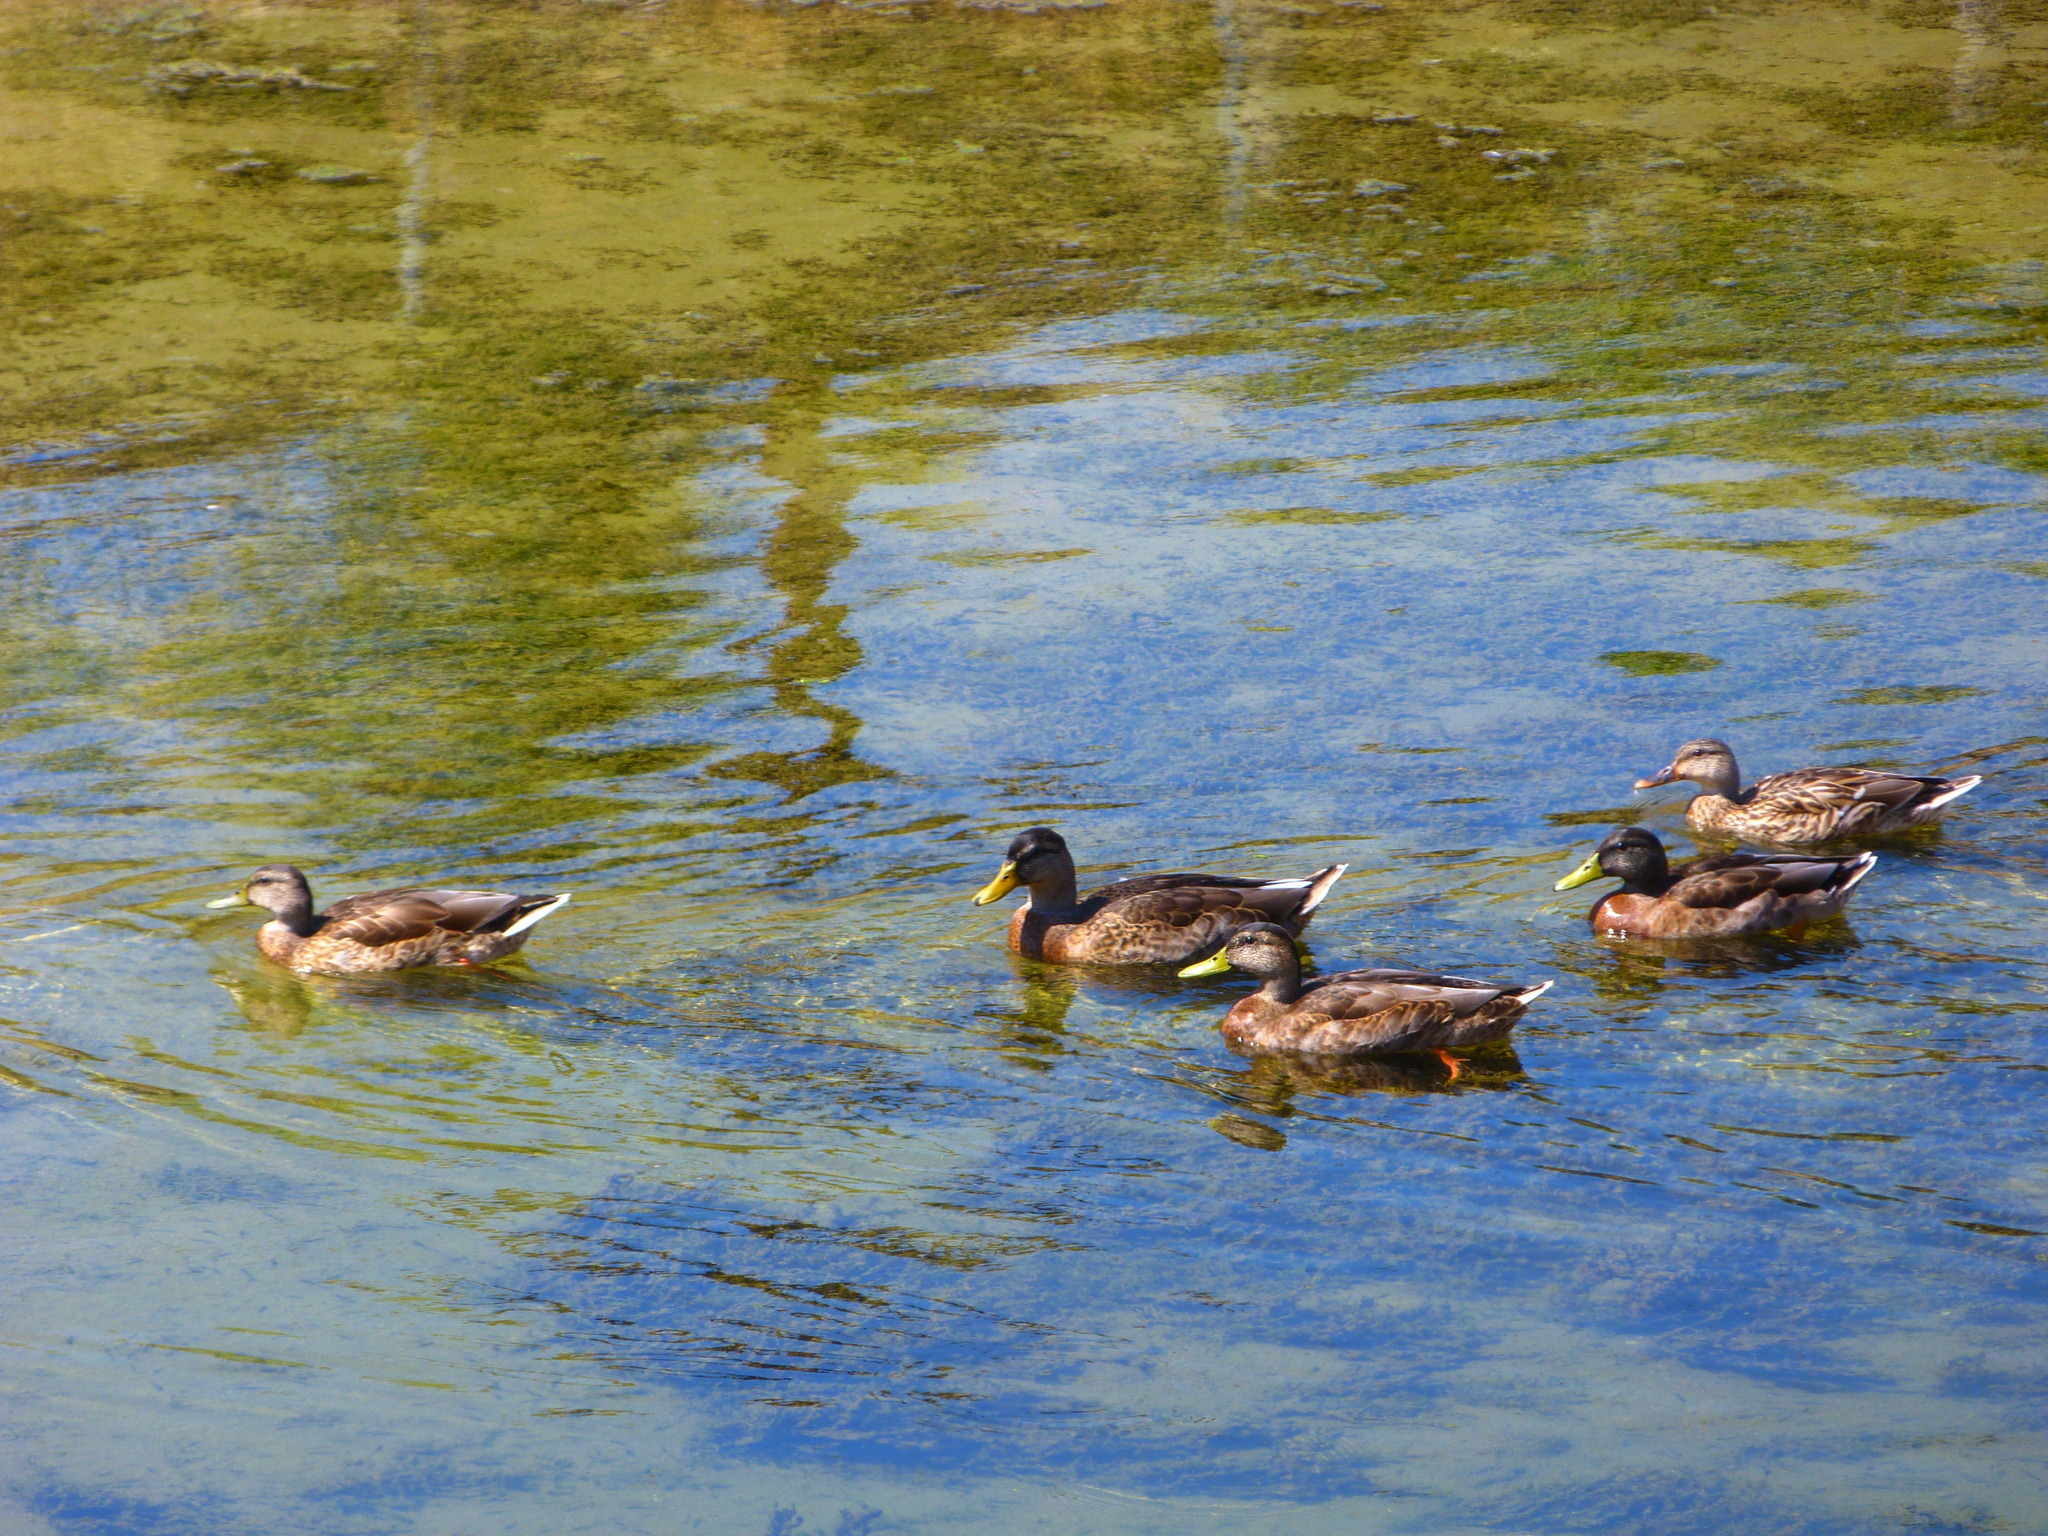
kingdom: Animalia
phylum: Chordata
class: Aves
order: Anseriformes
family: Anatidae
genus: Anas
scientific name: Anas platyrhynchos
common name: Mallard
